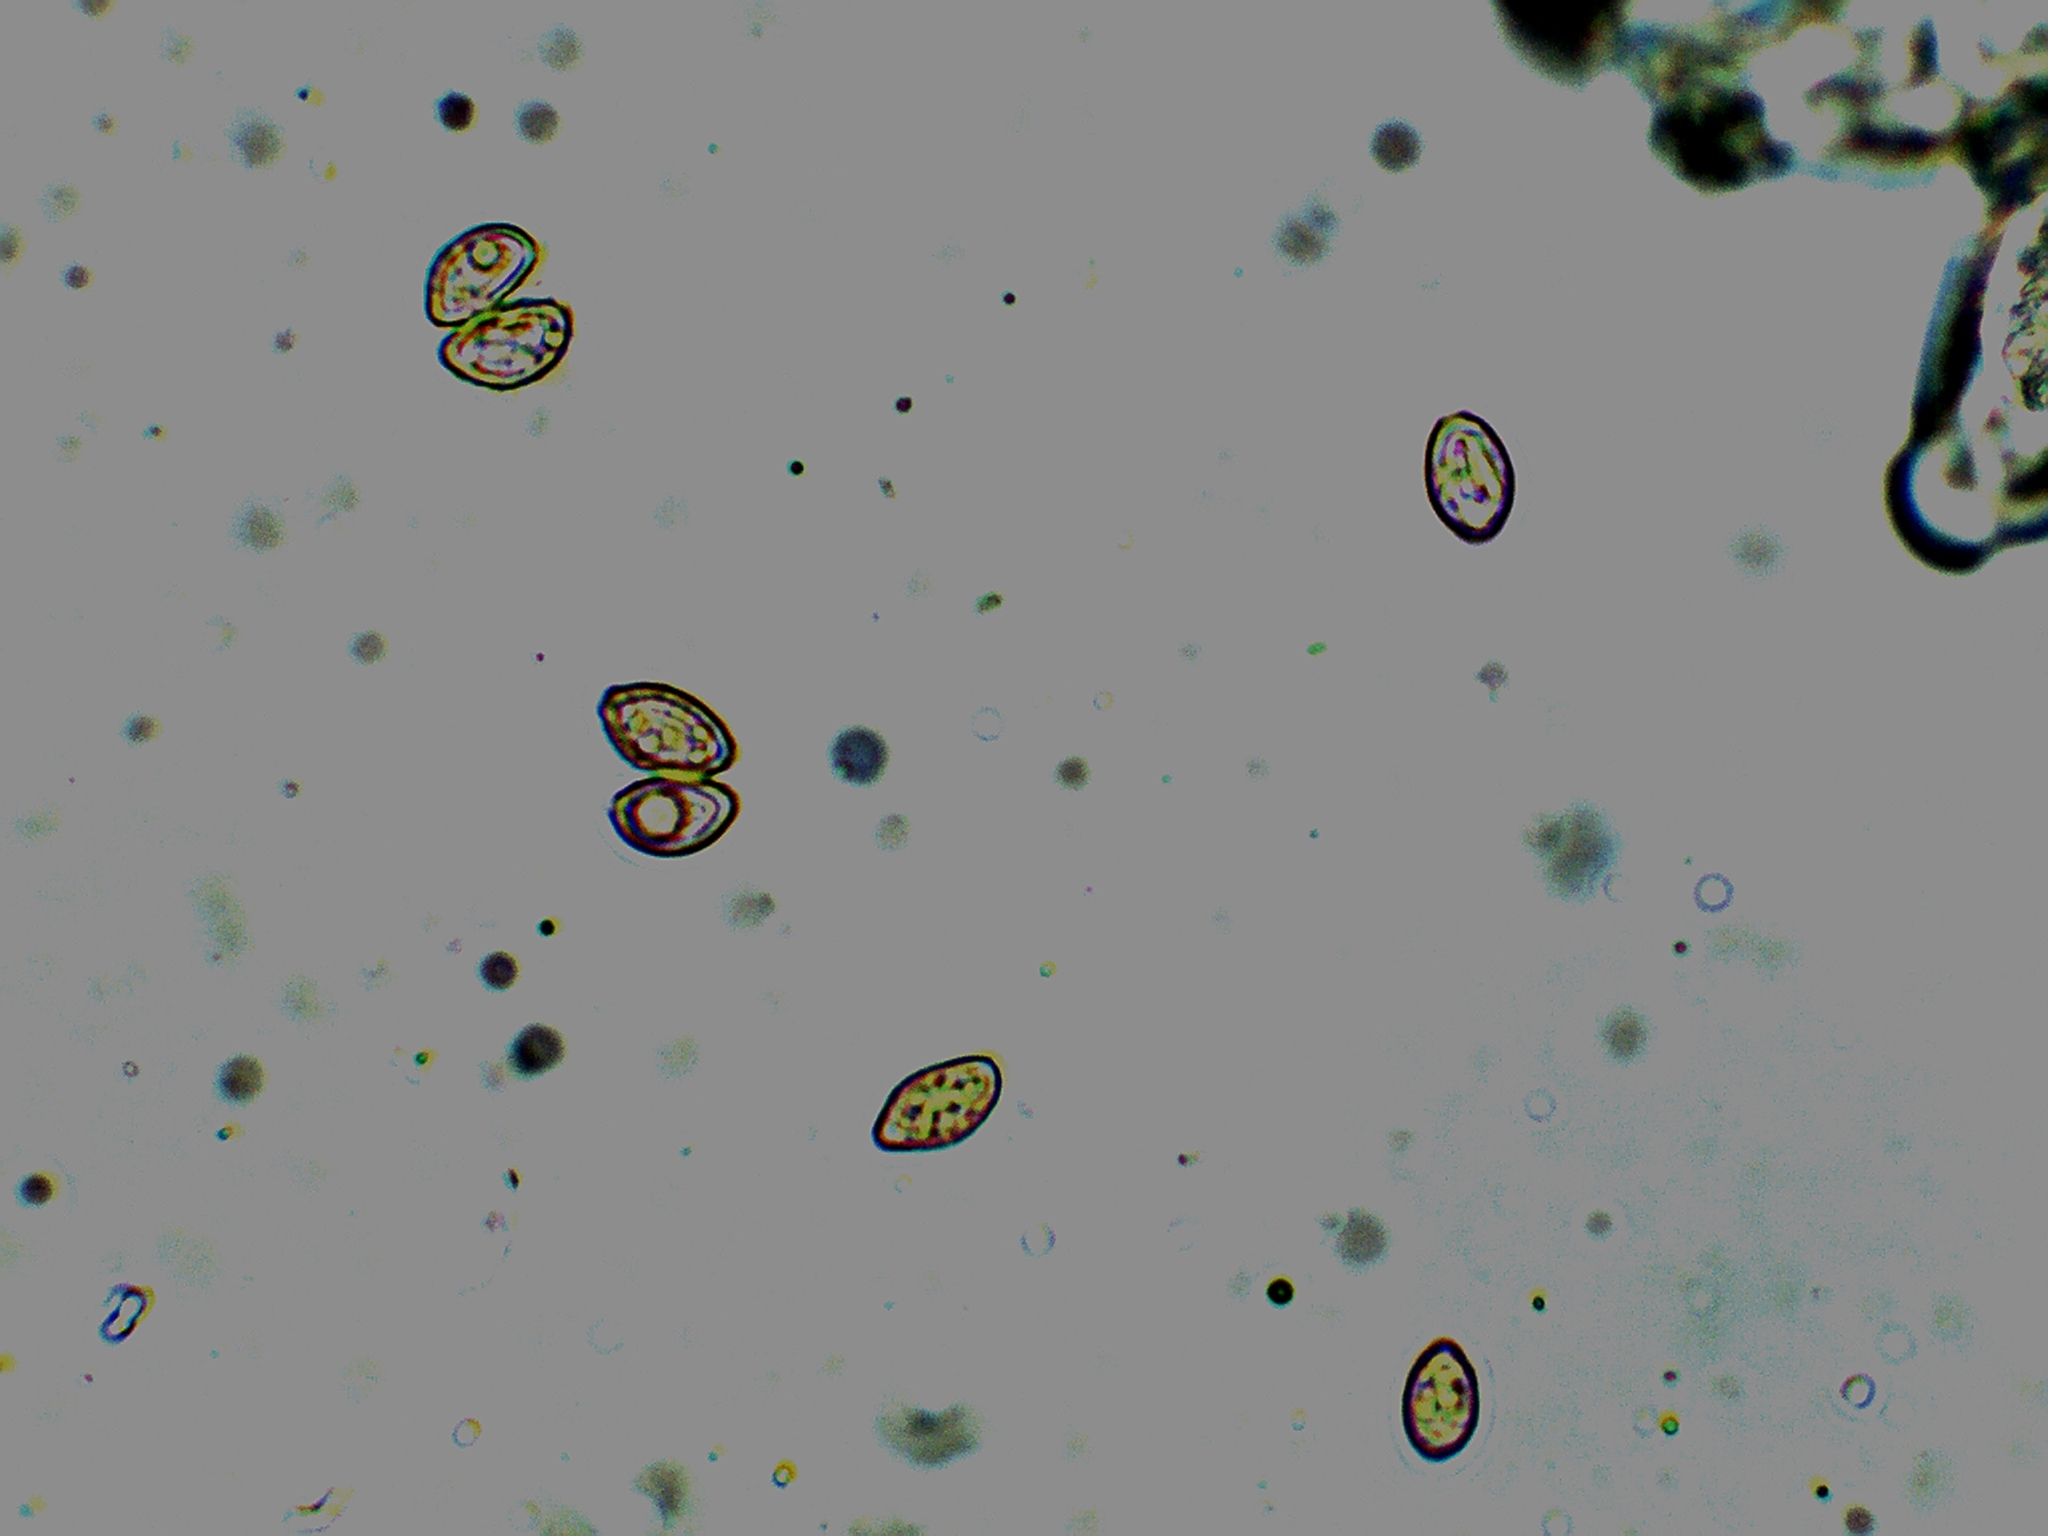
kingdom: Fungi
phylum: Basidiomycota
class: Agaricomycetes
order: Agaricales
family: Inocybaceae
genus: Inocybe
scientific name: Inocybe luteifolia
